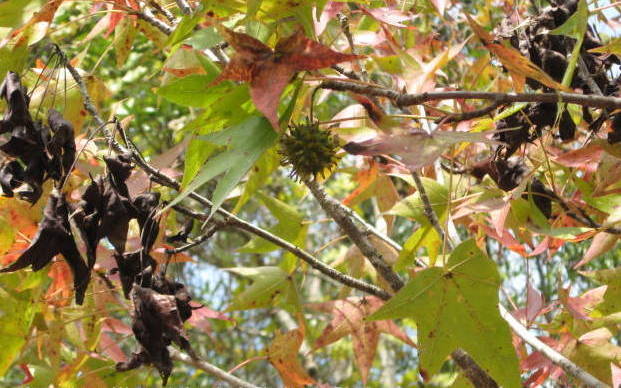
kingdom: Plantae
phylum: Tracheophyta
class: Magnoliopsida
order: Saxifragales
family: Altingiaceae
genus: Liquidambar
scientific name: Liquidambar styraciflua
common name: Sweet gum
